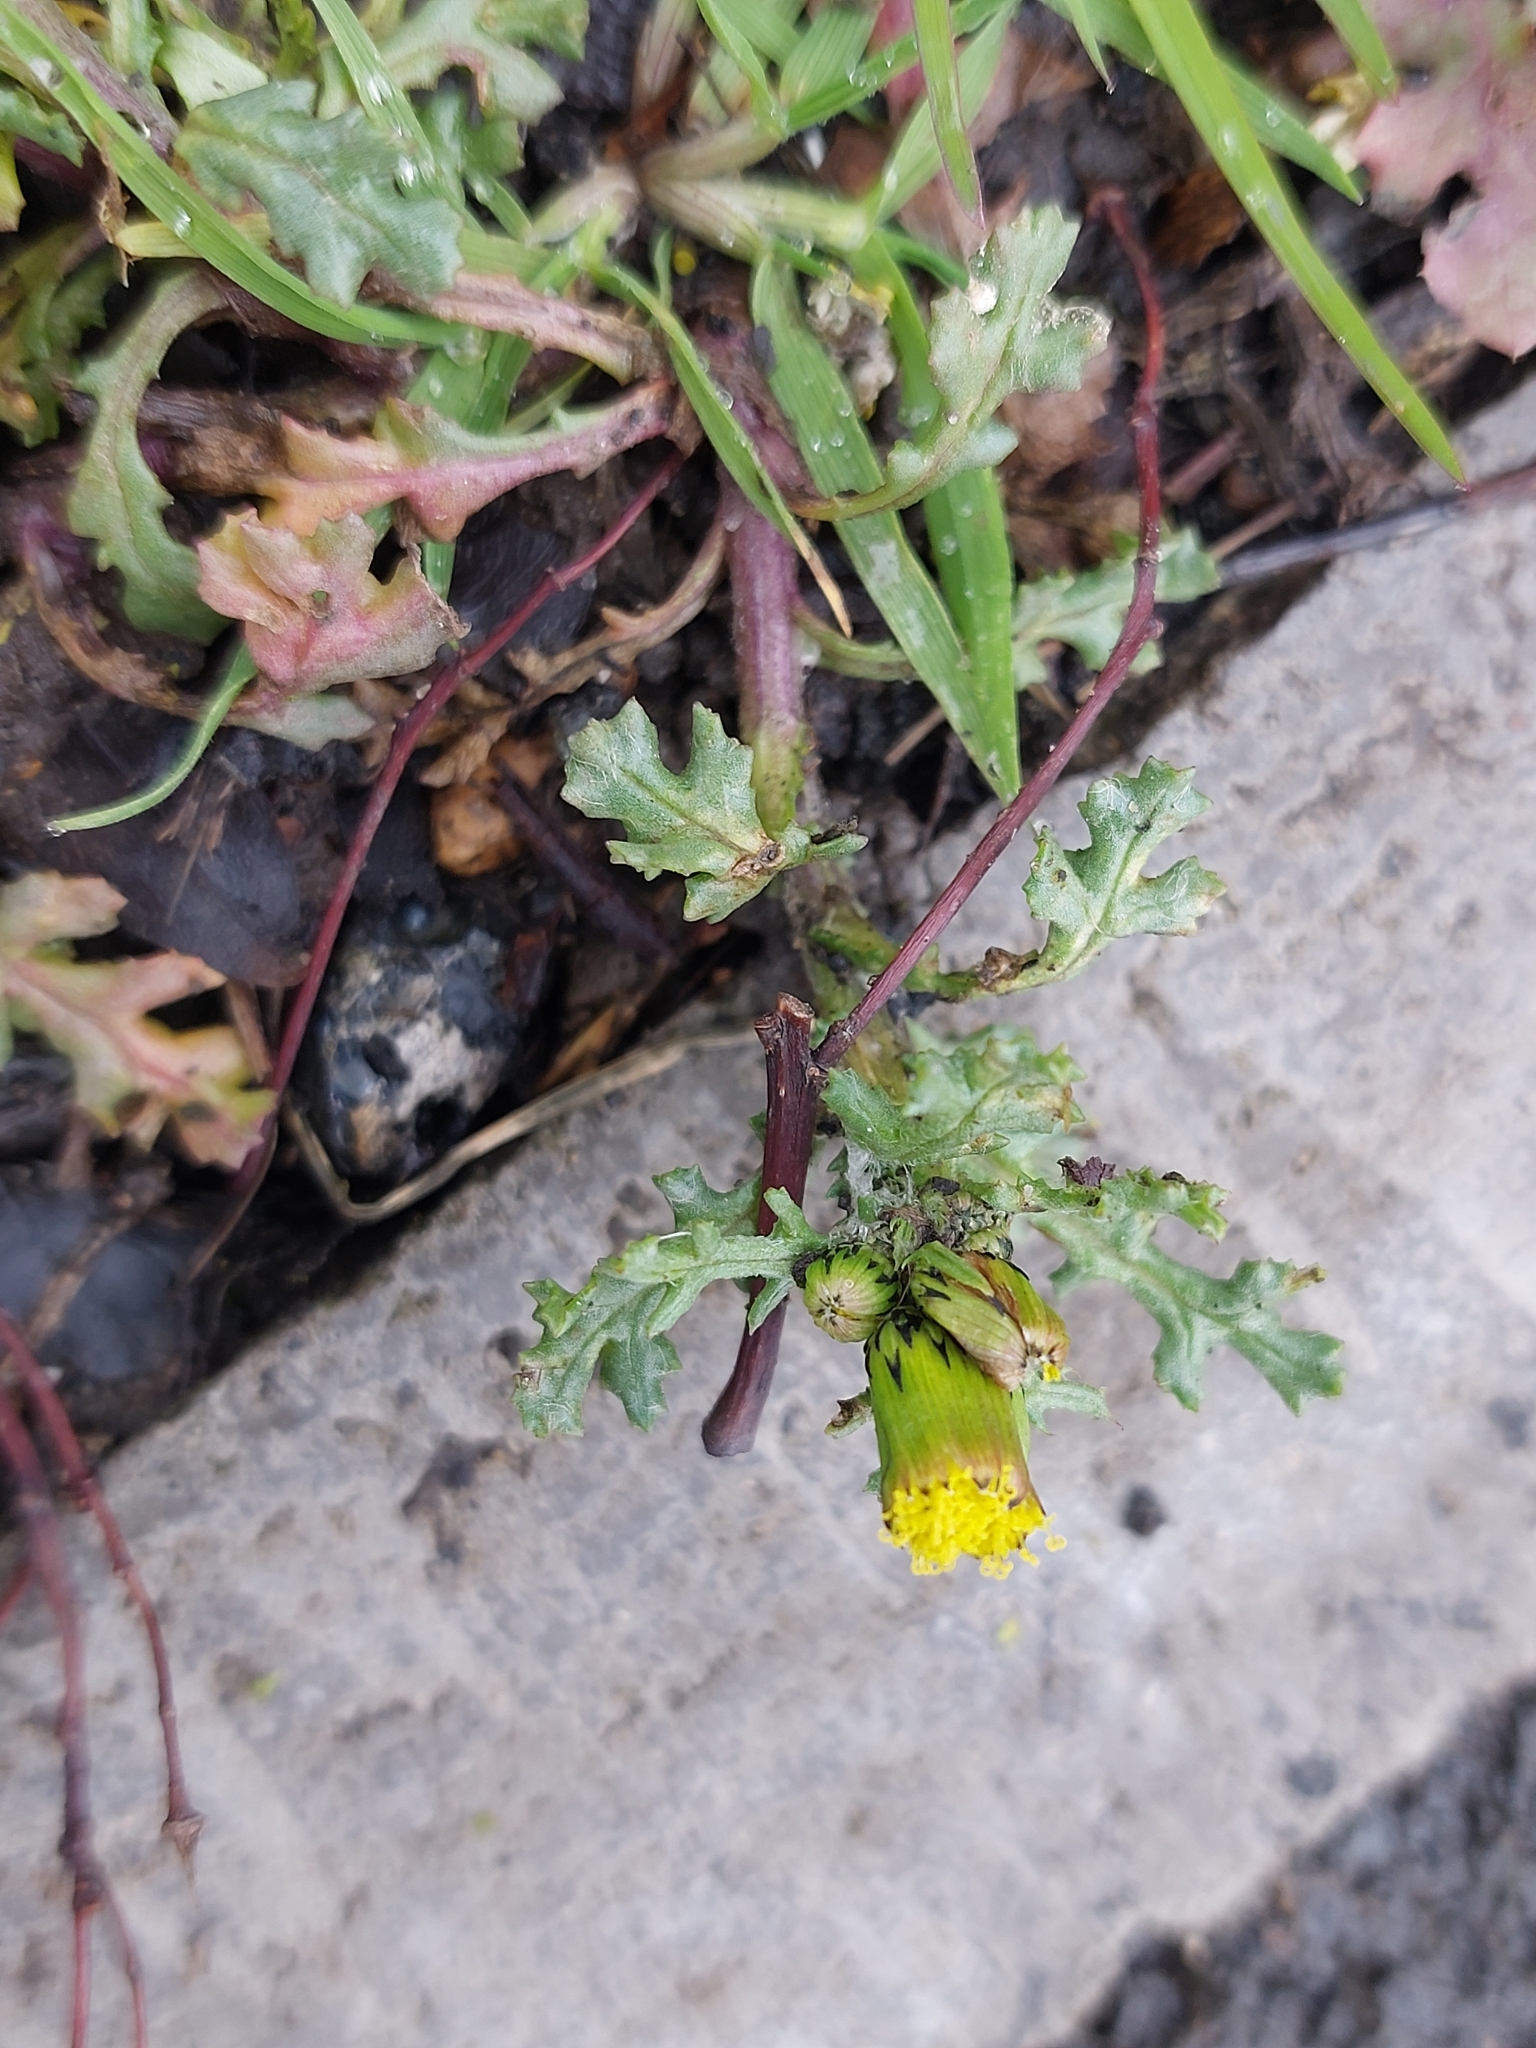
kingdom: Plantae
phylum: Tracheophyta
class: Magnoliopsida
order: Asterales
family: Asteraceae
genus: Senecio
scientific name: Senecio vulgaris
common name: Old-man-in-the-spring
